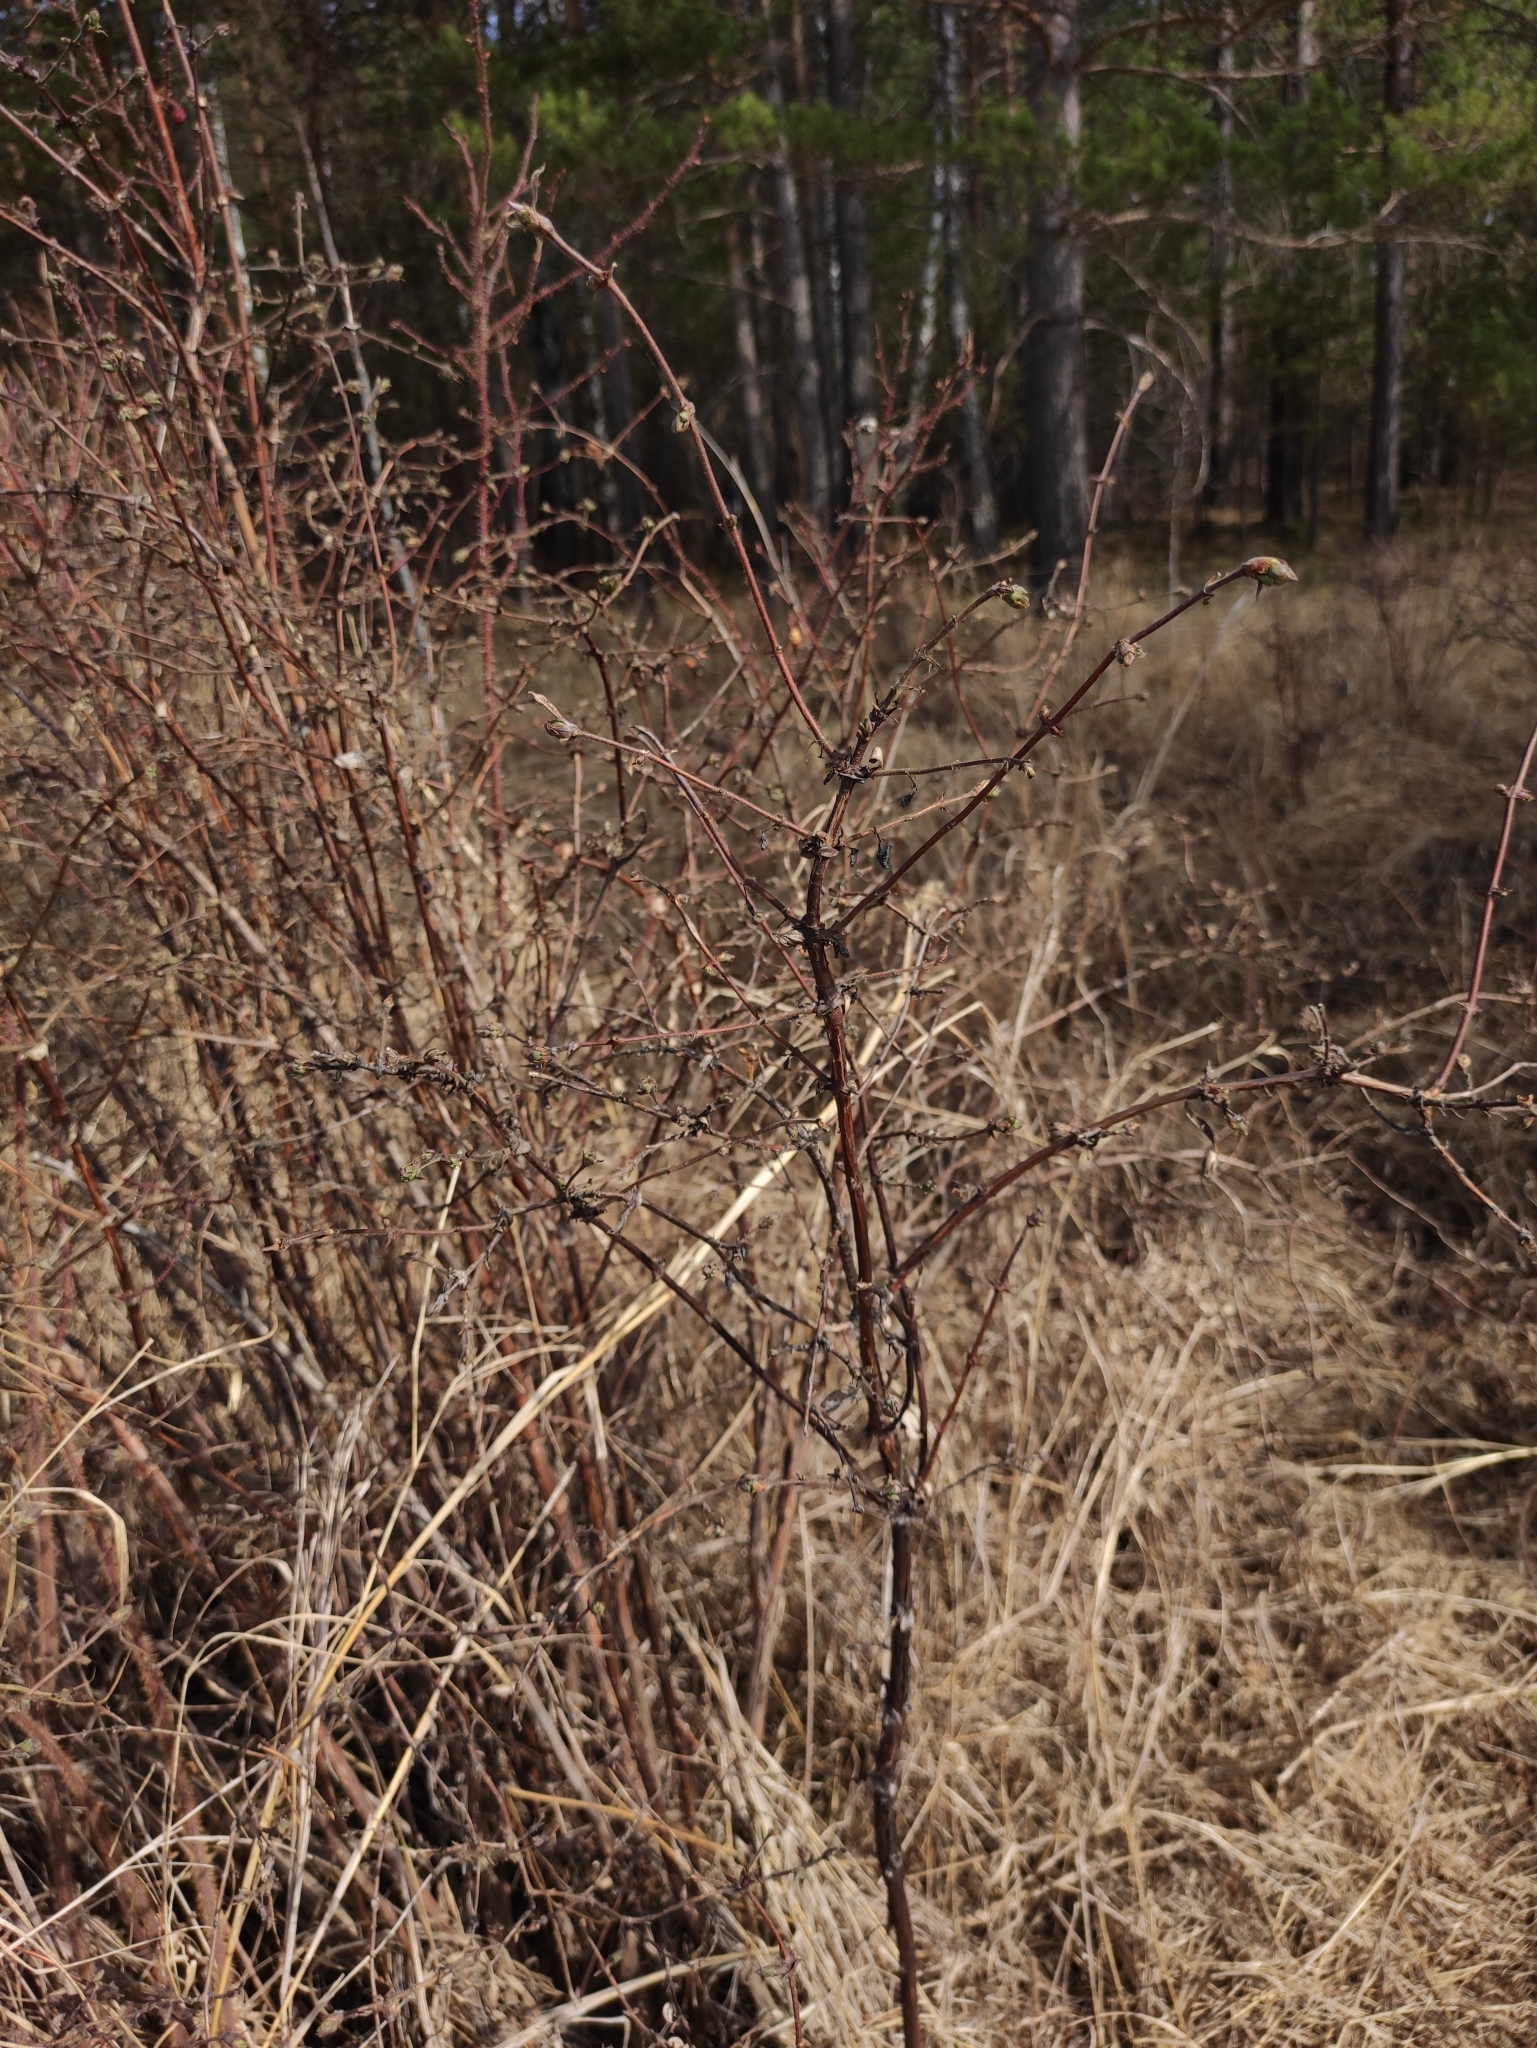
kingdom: Plantae
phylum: Tracheophyta
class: Magnoliopsida
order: Dipsacales
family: Caprifoliaceae
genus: Lonicera
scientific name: Lonicera caerulea
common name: Blue honeysuckle
